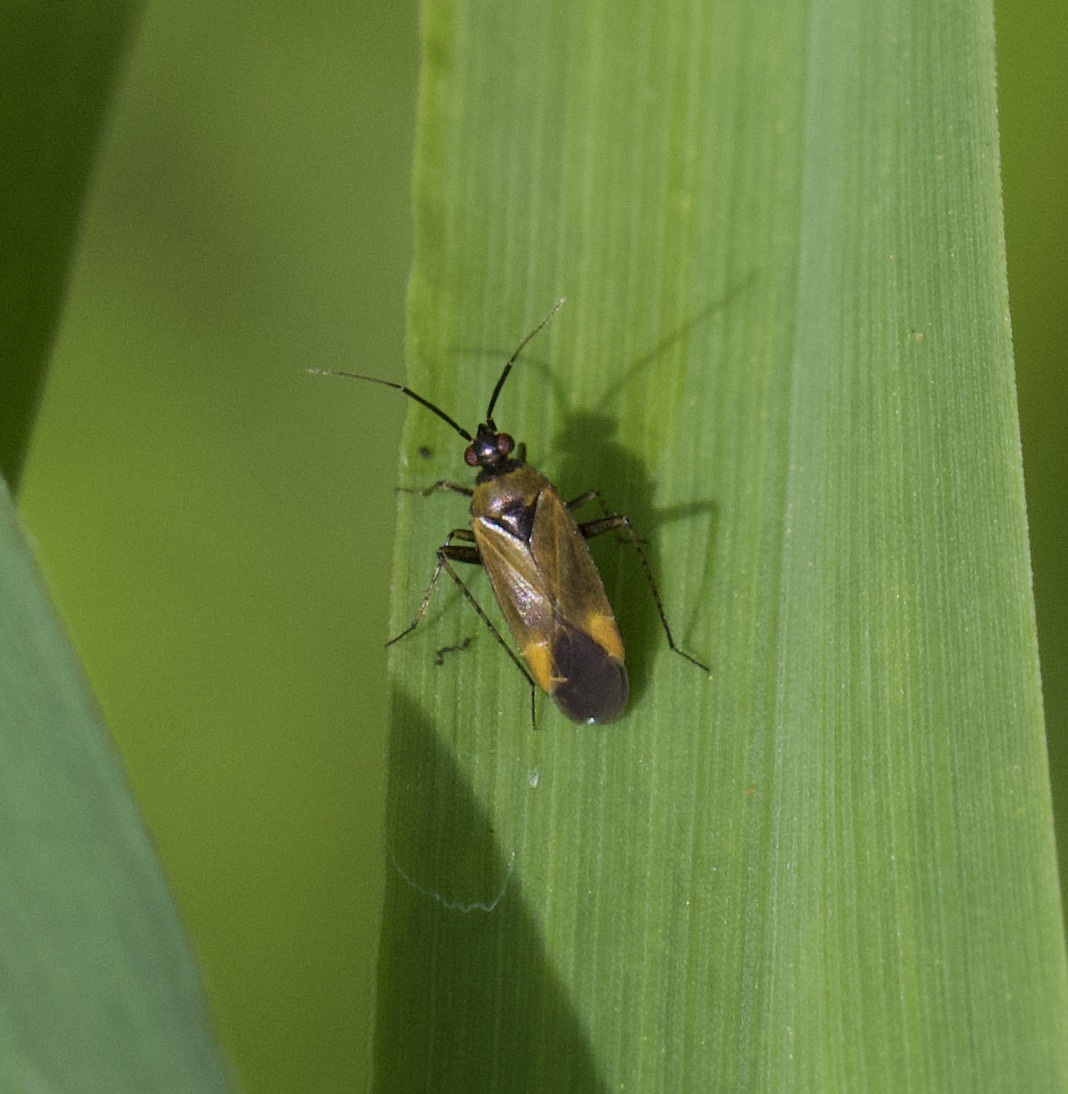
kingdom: Animalia
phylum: Arthropoda
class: Insecta
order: Hemiptera
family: Miridae
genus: Plagiognathus
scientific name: Plagiognathus arbustorum
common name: Plant bug
